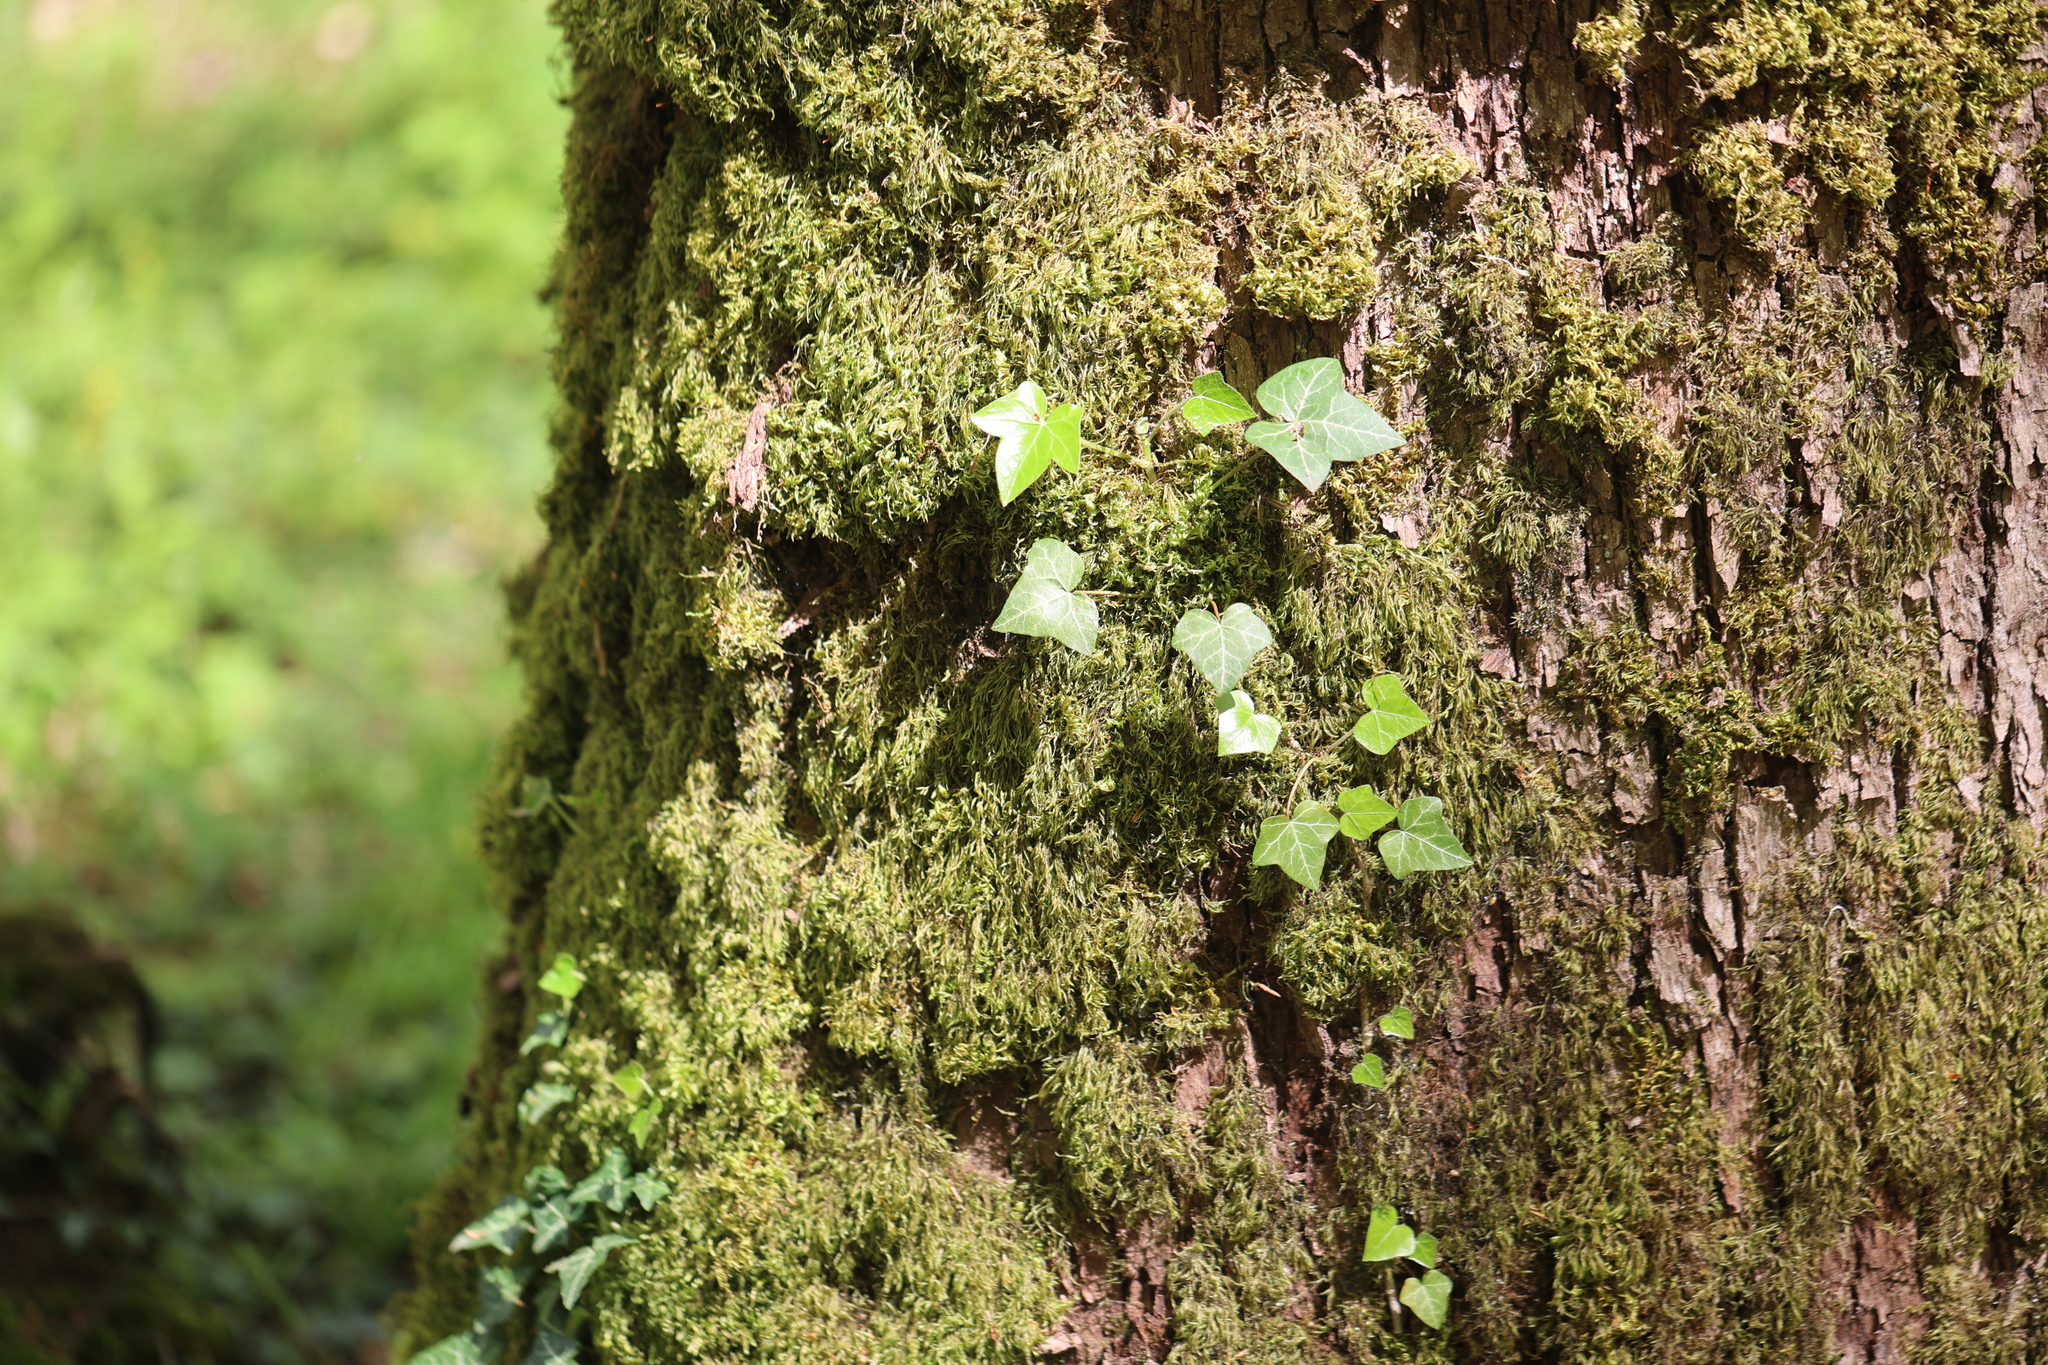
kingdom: Plantae
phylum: Tracheophyta
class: Magnoliopsida
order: Apiales
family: Araliaceae
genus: Hedera
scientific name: Hedera helix
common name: Ivy
